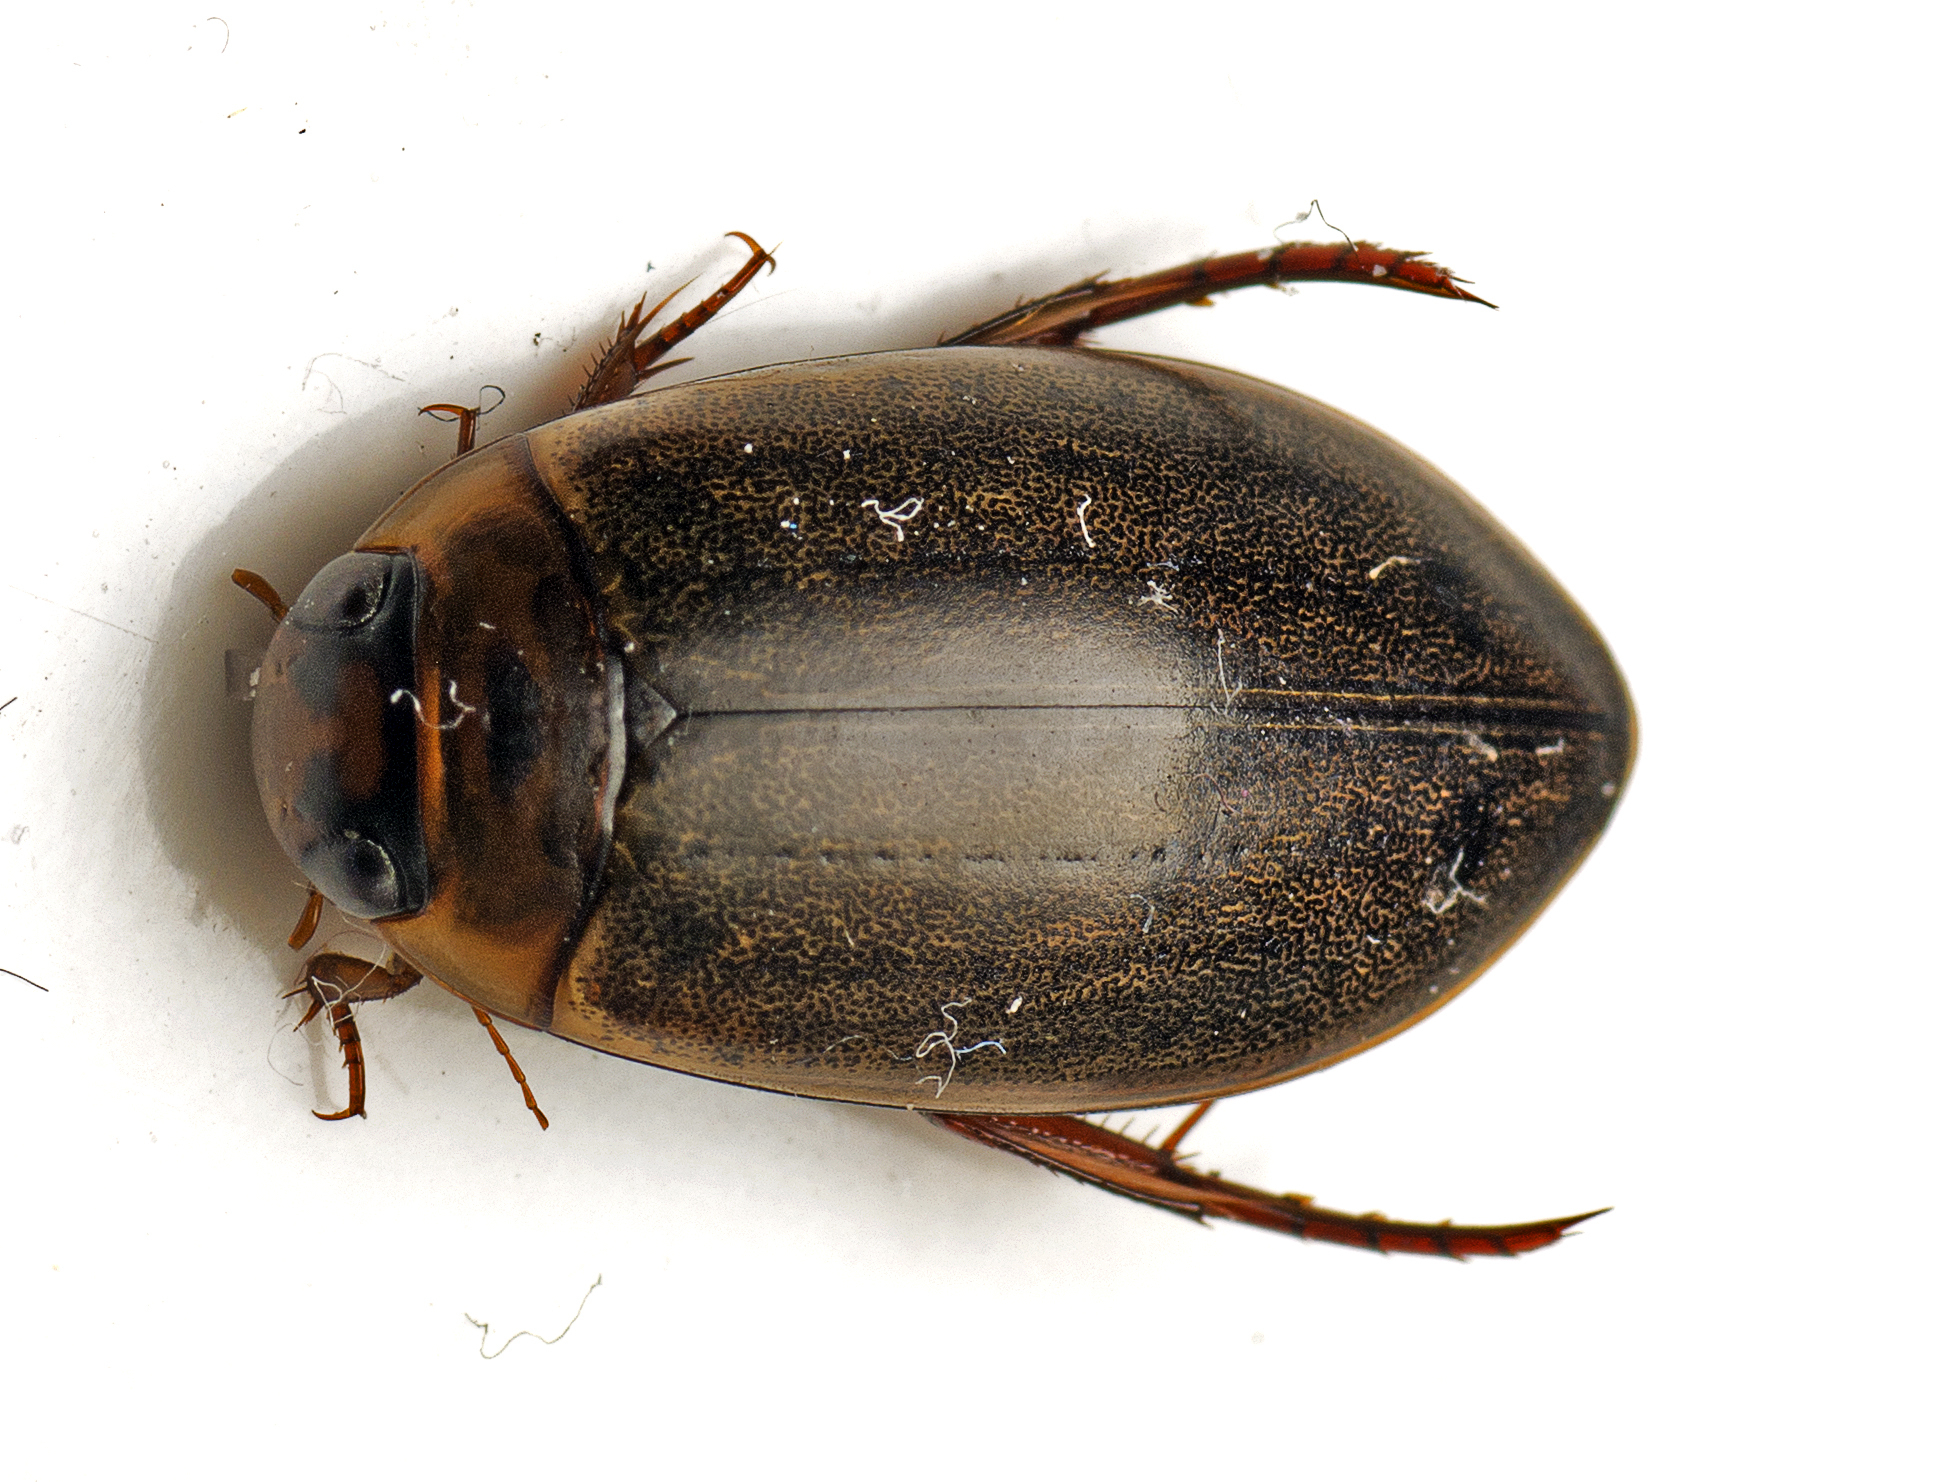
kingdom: Animalia
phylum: Arthropoda
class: Insecta
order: Coleoptera
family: Dytiscidae
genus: Rhantus
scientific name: Rhantus suturalis
